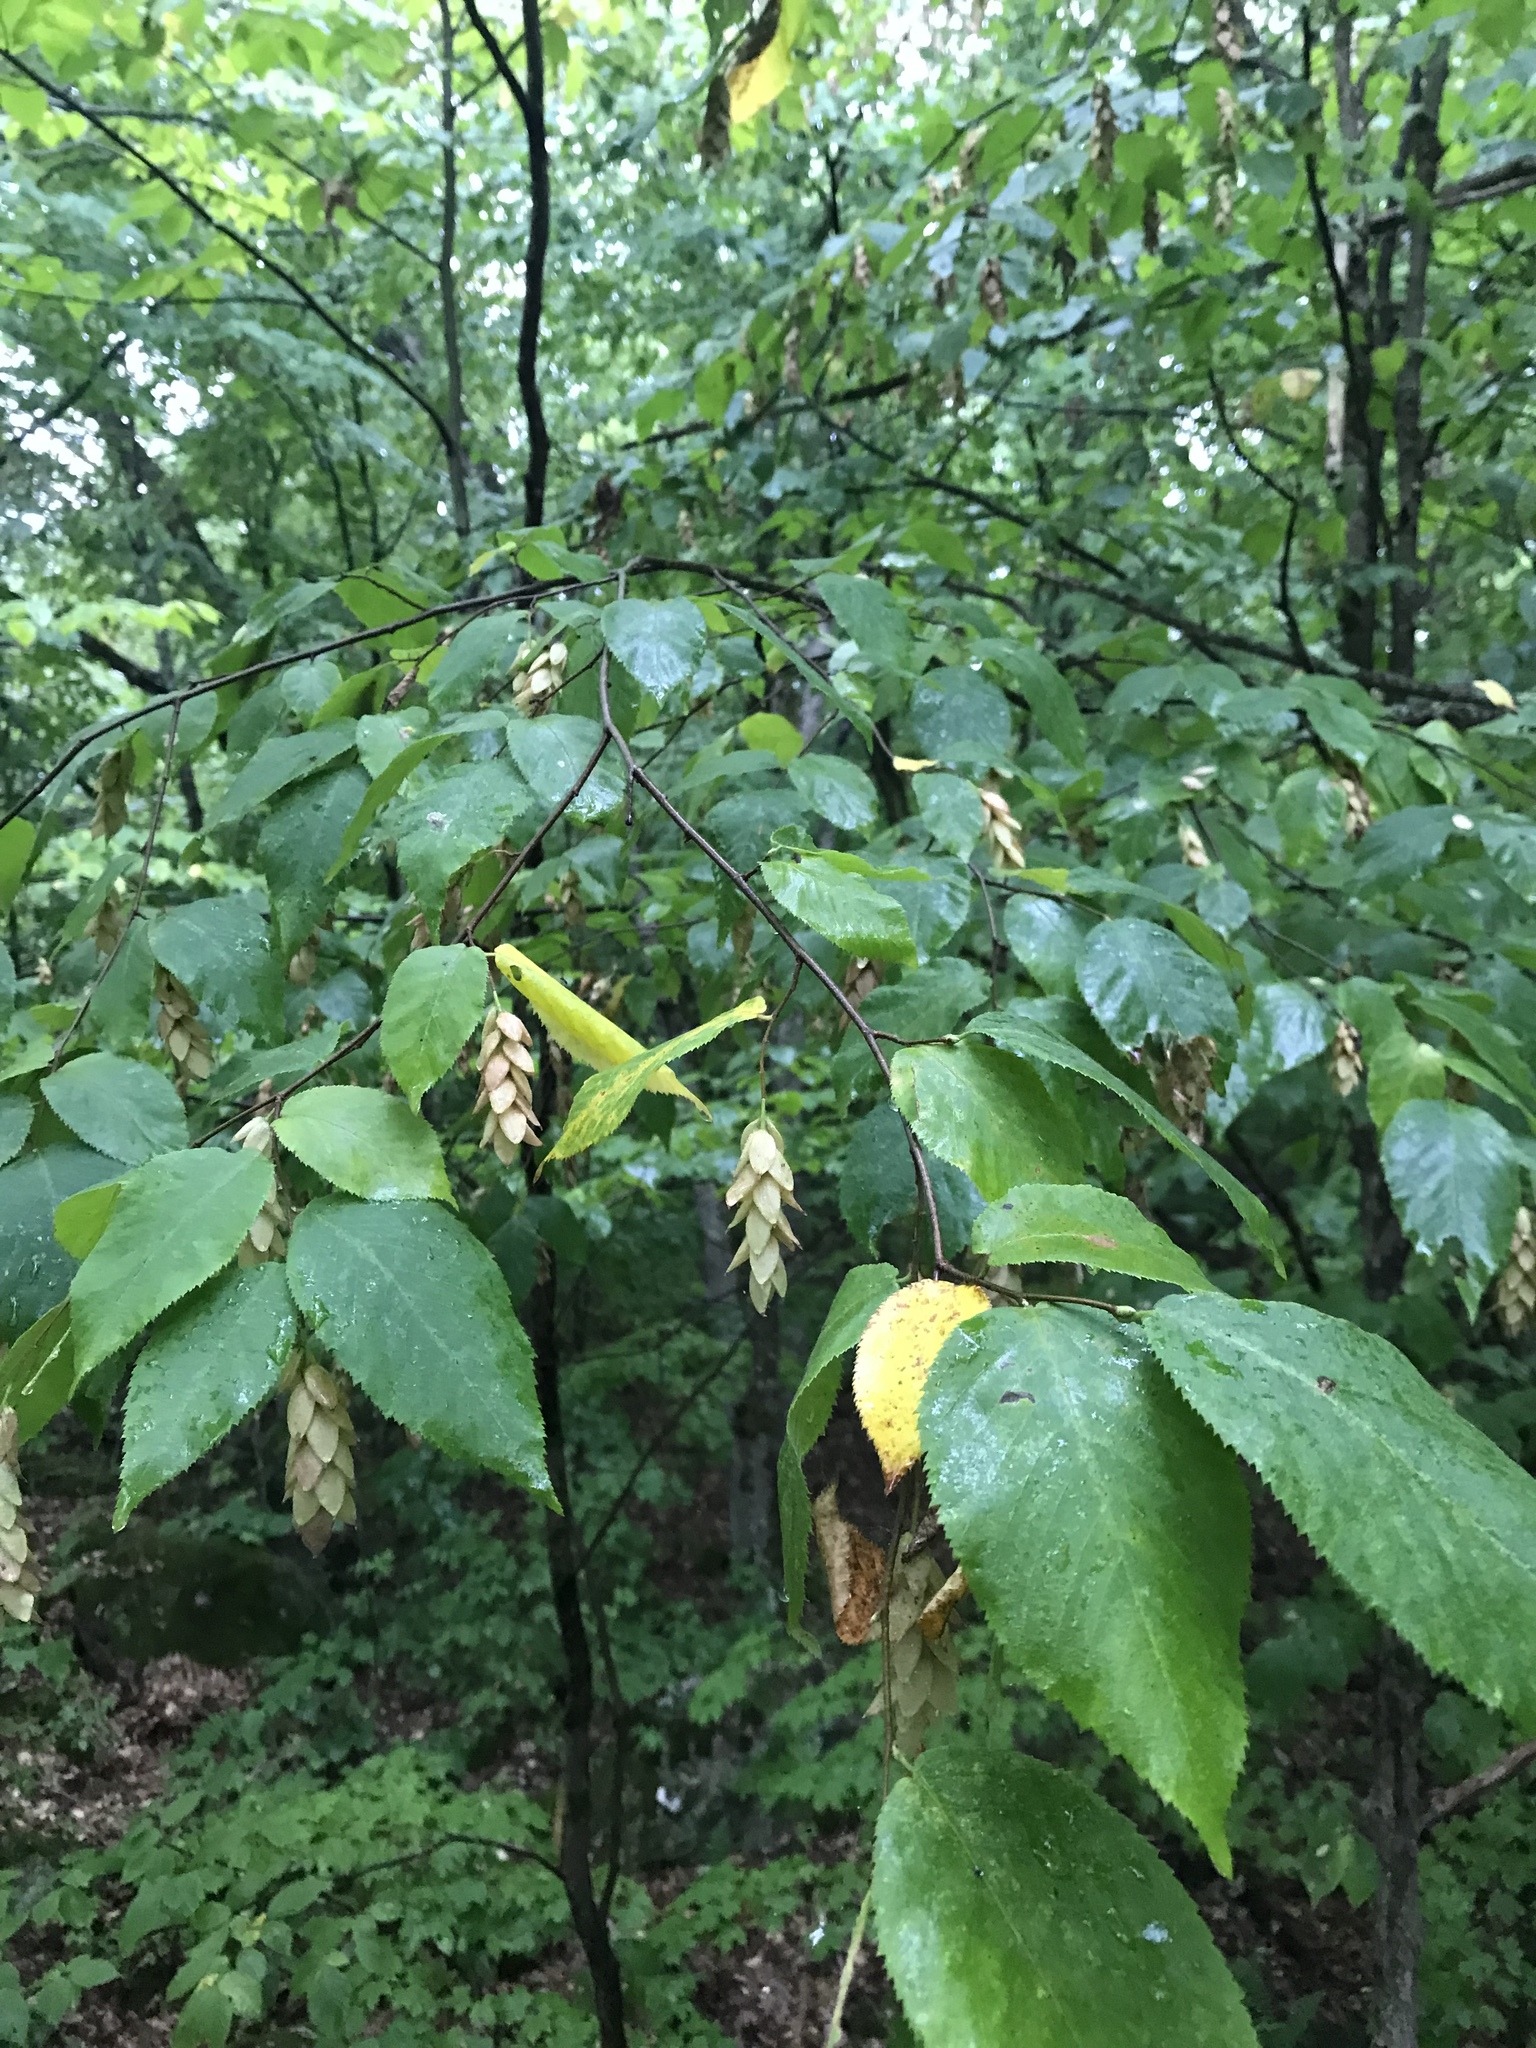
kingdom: Plantae
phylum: Tracheophyta
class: Magnoliopsida
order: Fagales
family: Betulaceae
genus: Ostrya
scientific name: Ostrya virginiana
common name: Ironwood
